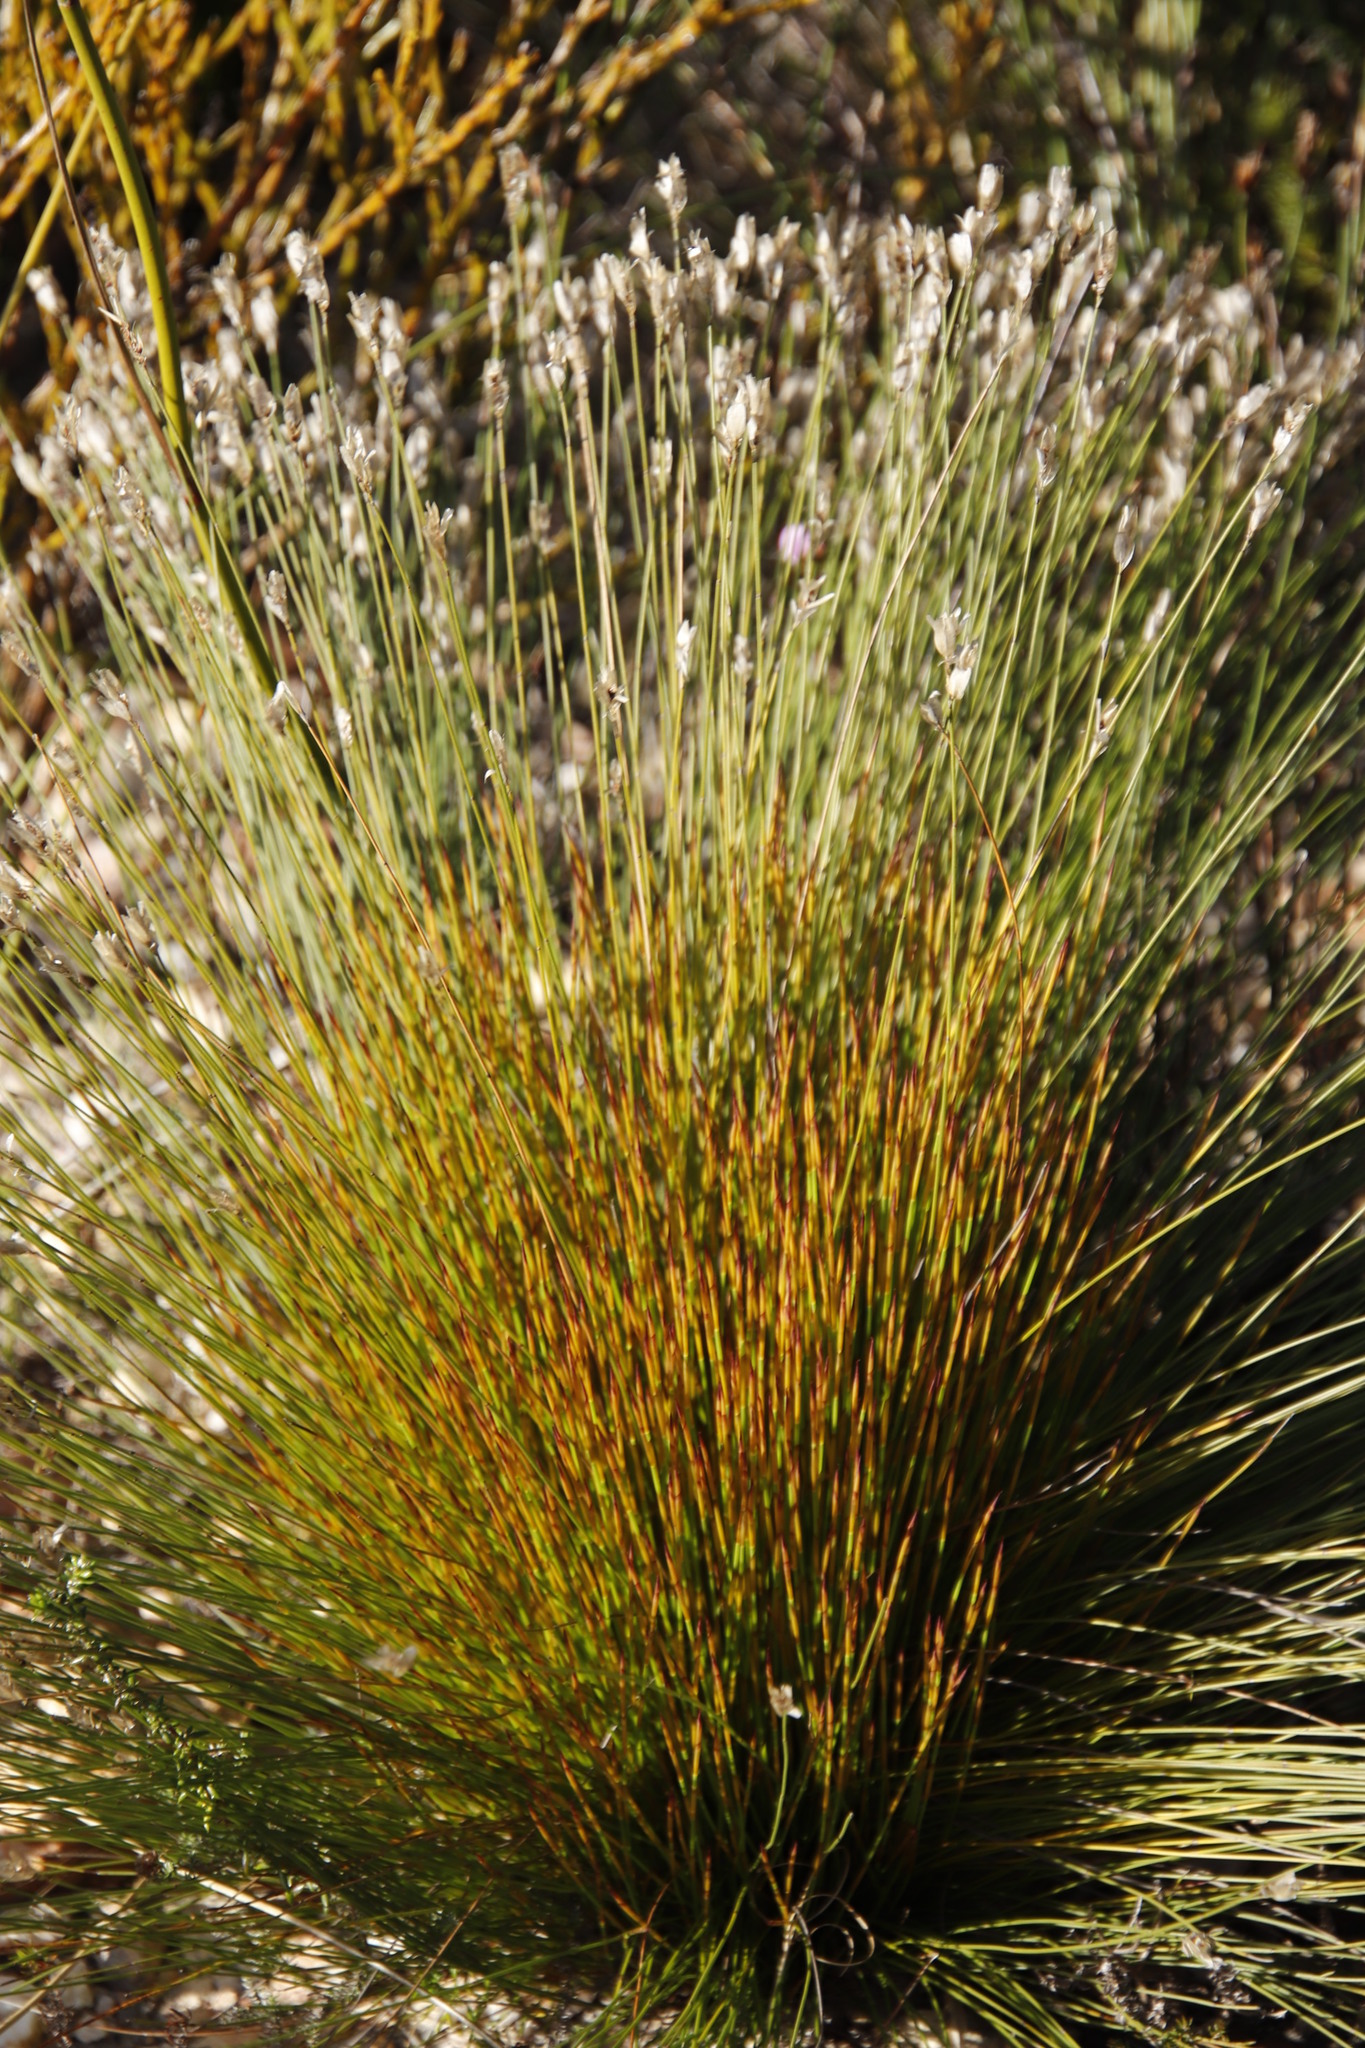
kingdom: Plantae
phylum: Tracheophyta
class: Liliopsida
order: Poales
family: Restionaceae
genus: Elegia
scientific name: Elegia filacea
